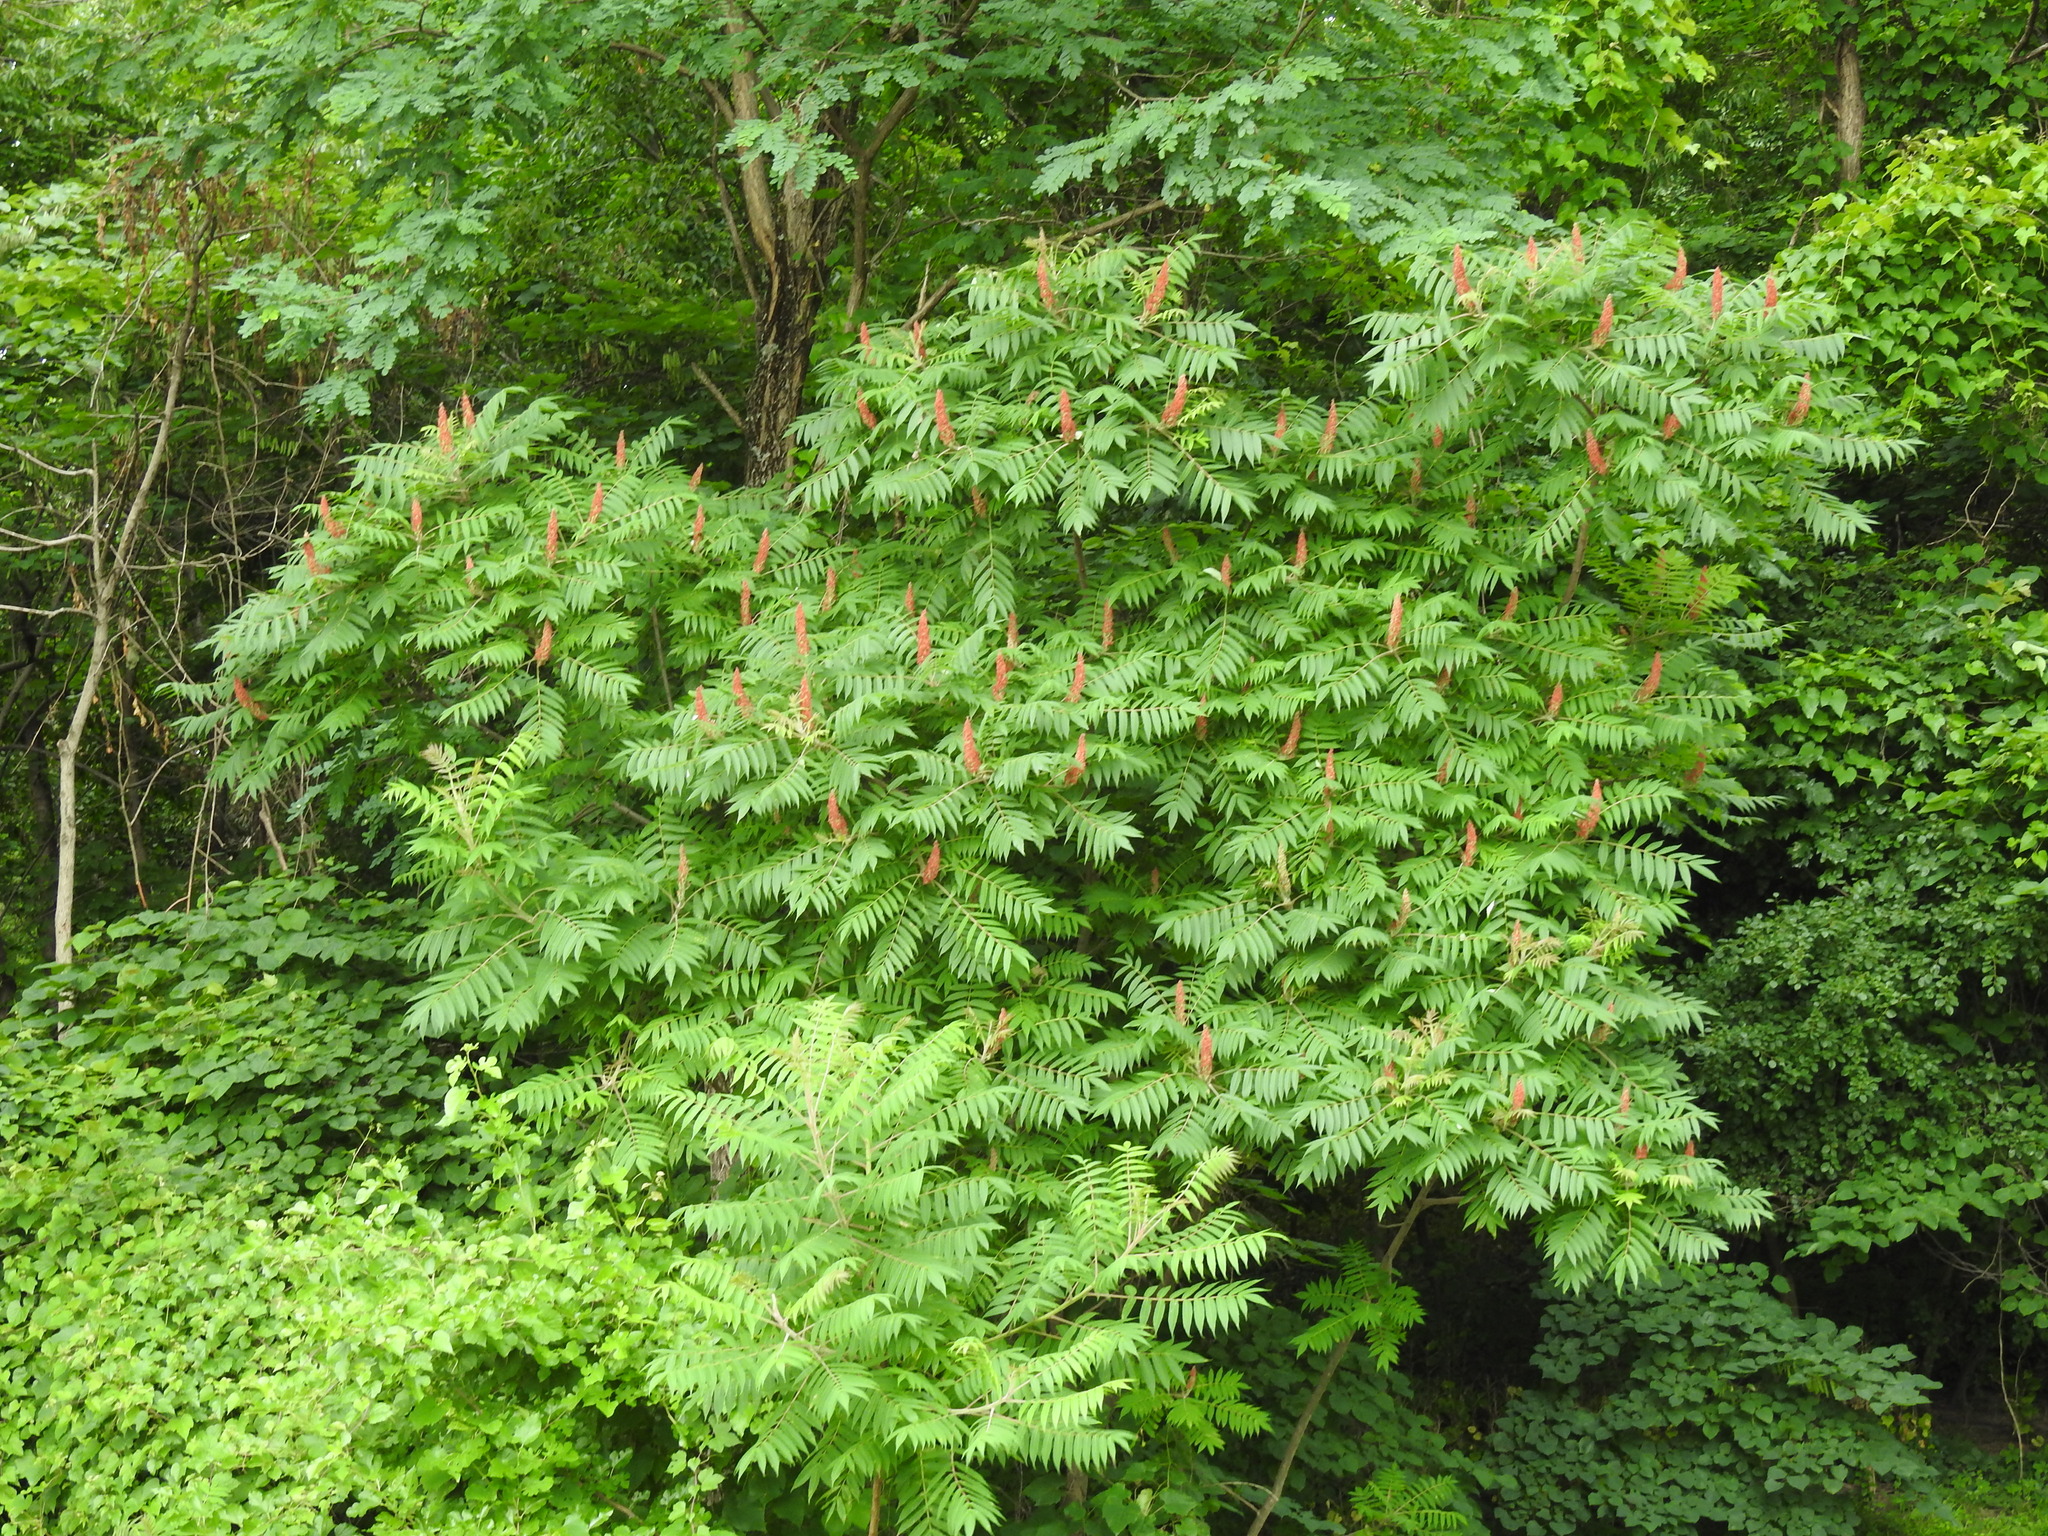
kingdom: Plantae
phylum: Tracheophyta
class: Magnoliopsida
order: Sapindales
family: Anacardiaceae
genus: Rhus
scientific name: Rhus typhina
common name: Staghorn sumac
